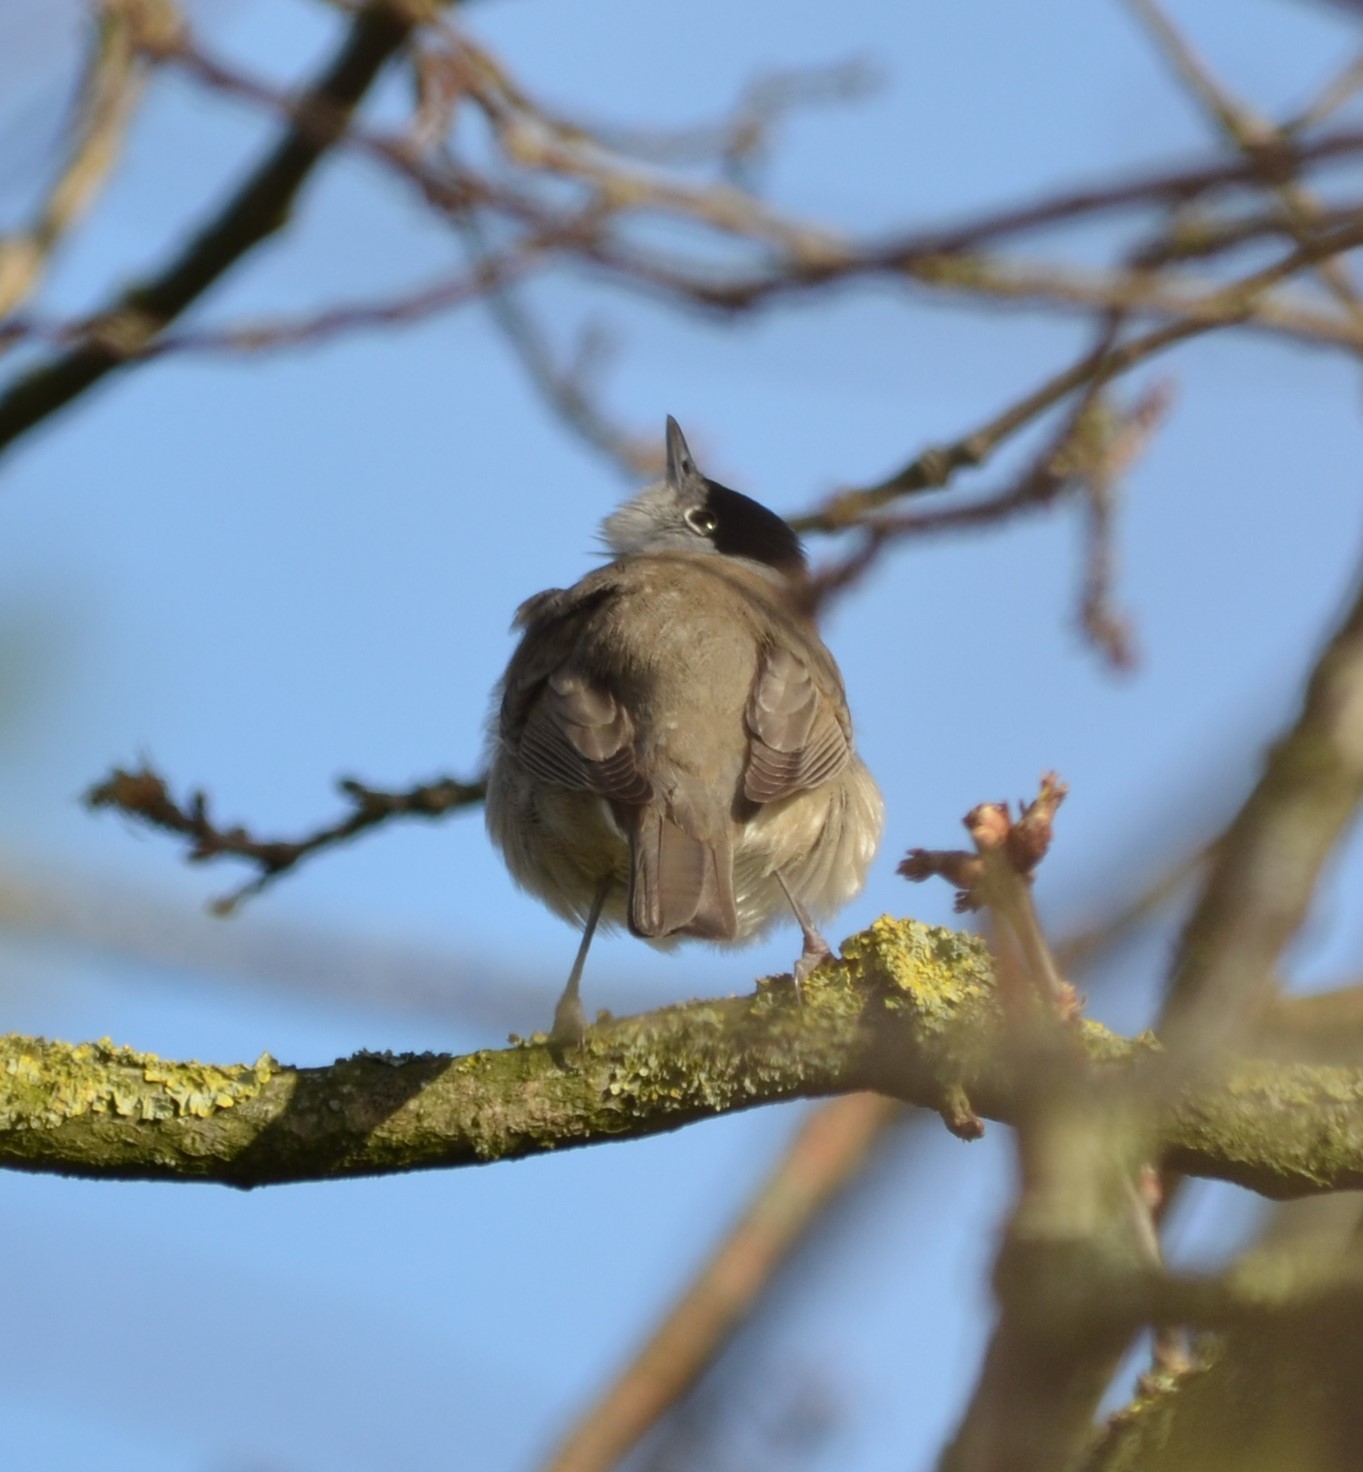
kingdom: Animalia
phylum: Chordata
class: Aves
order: Passeriformes
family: Sylviidae
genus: Sylvia
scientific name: Sylvia atricapilla
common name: Eurasian blackcap
